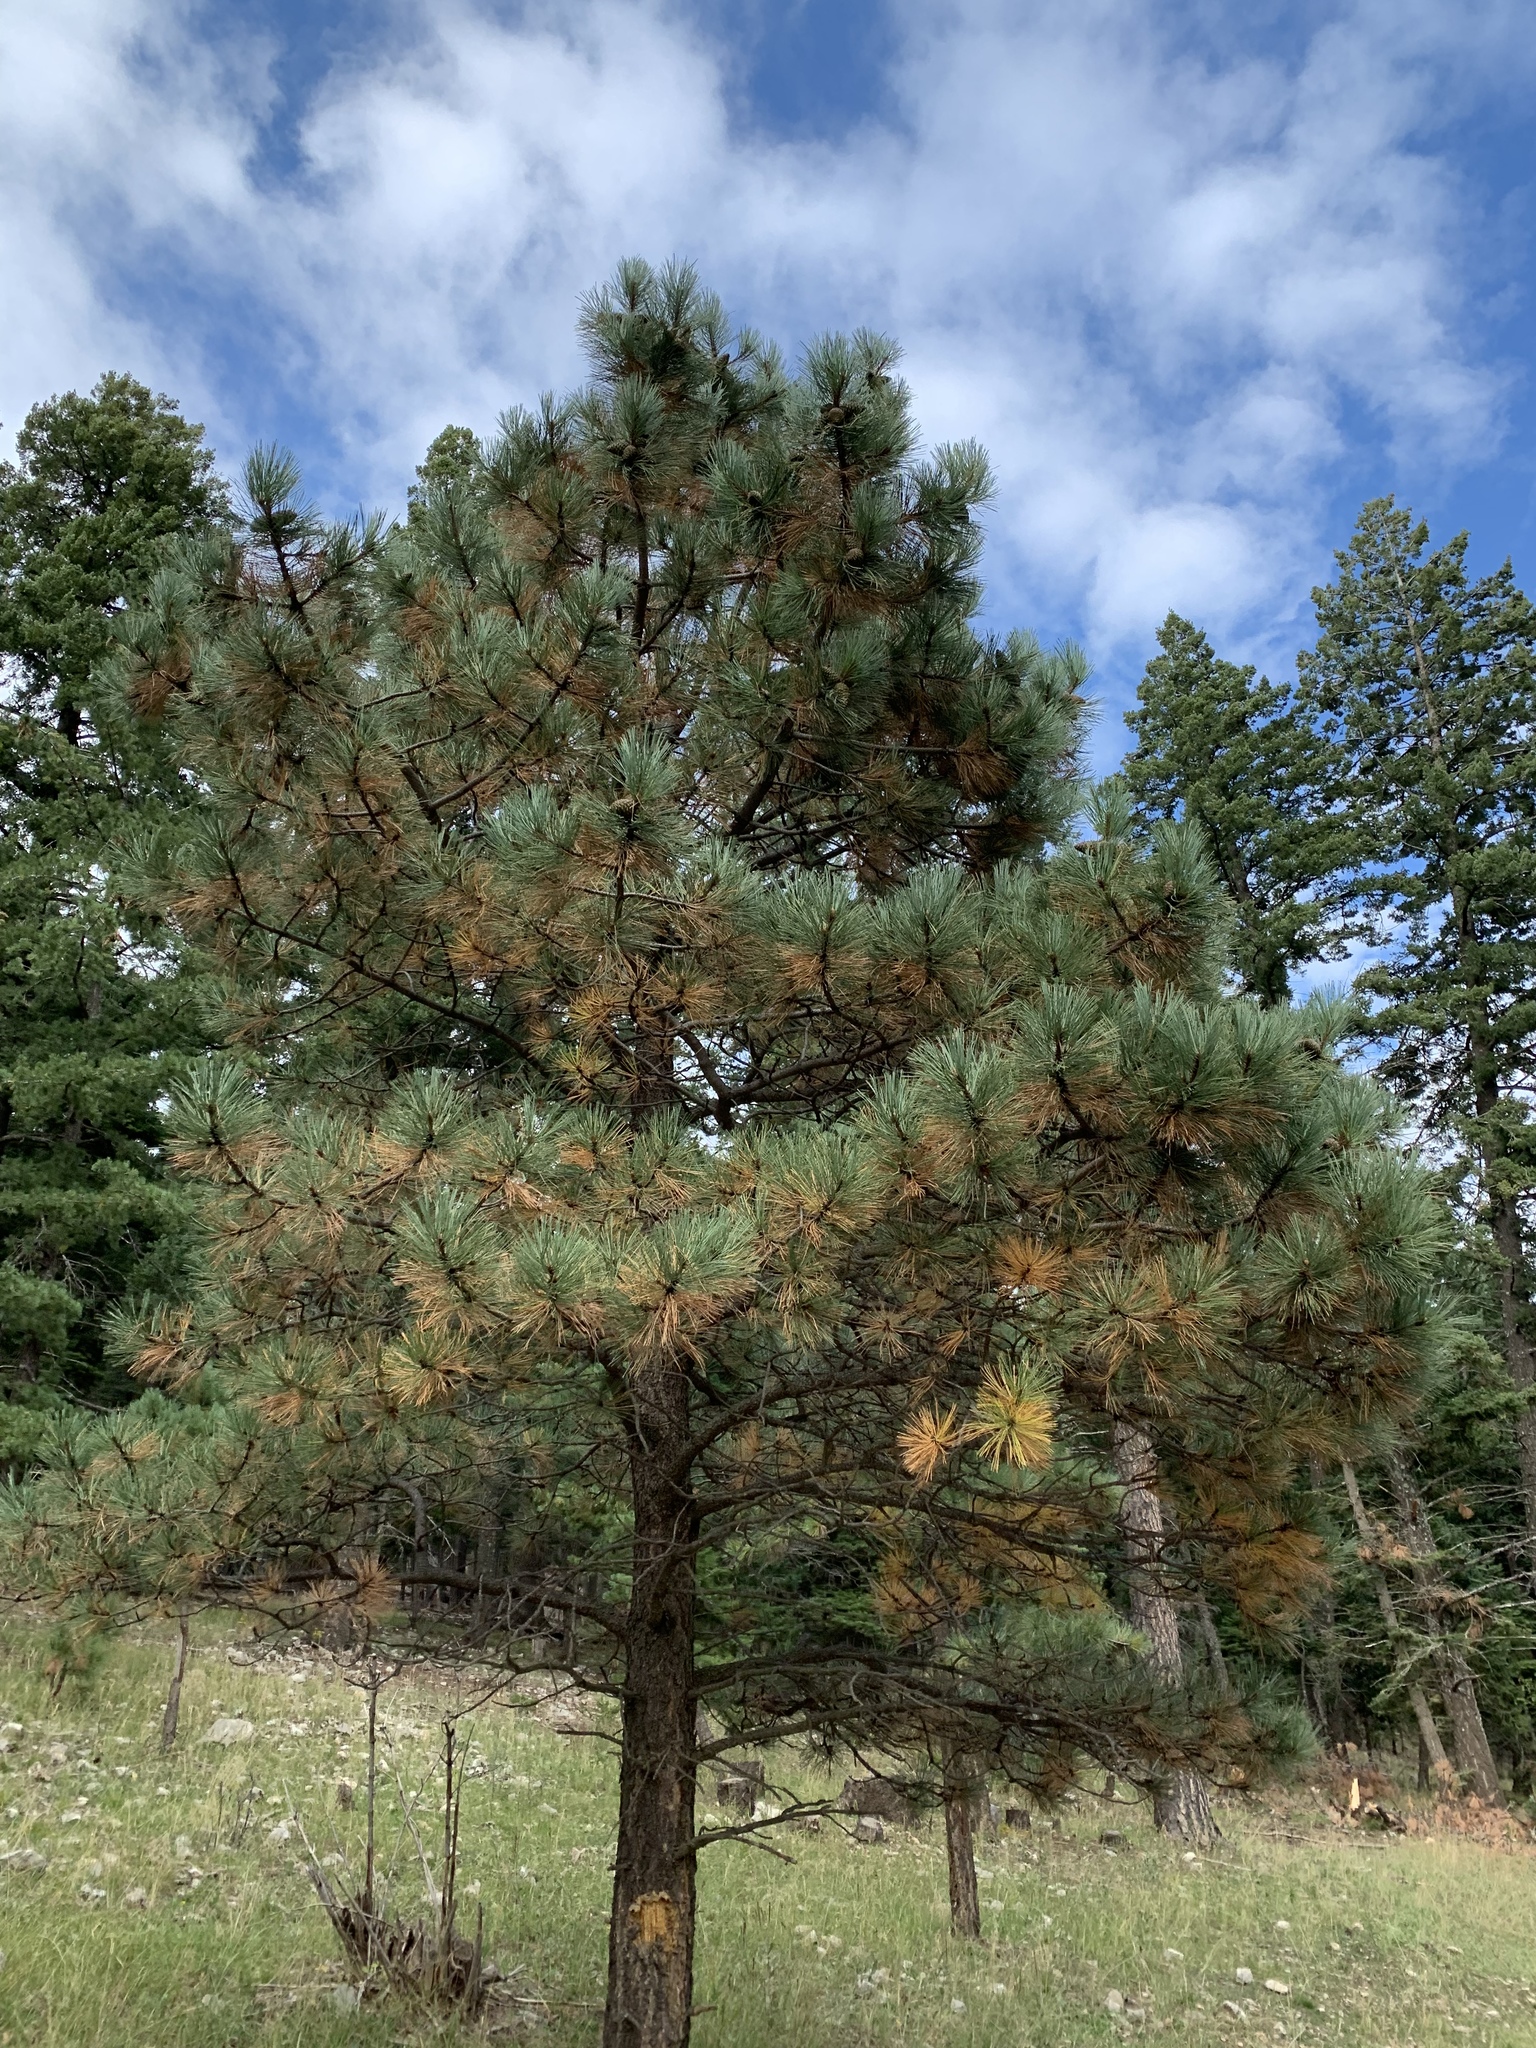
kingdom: Plantae
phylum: Tracheophyta
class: Pinopsida
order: Pinales
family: Pinaceae
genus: Pinus
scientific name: Pinus ponderosa
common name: Western yellow-pine
